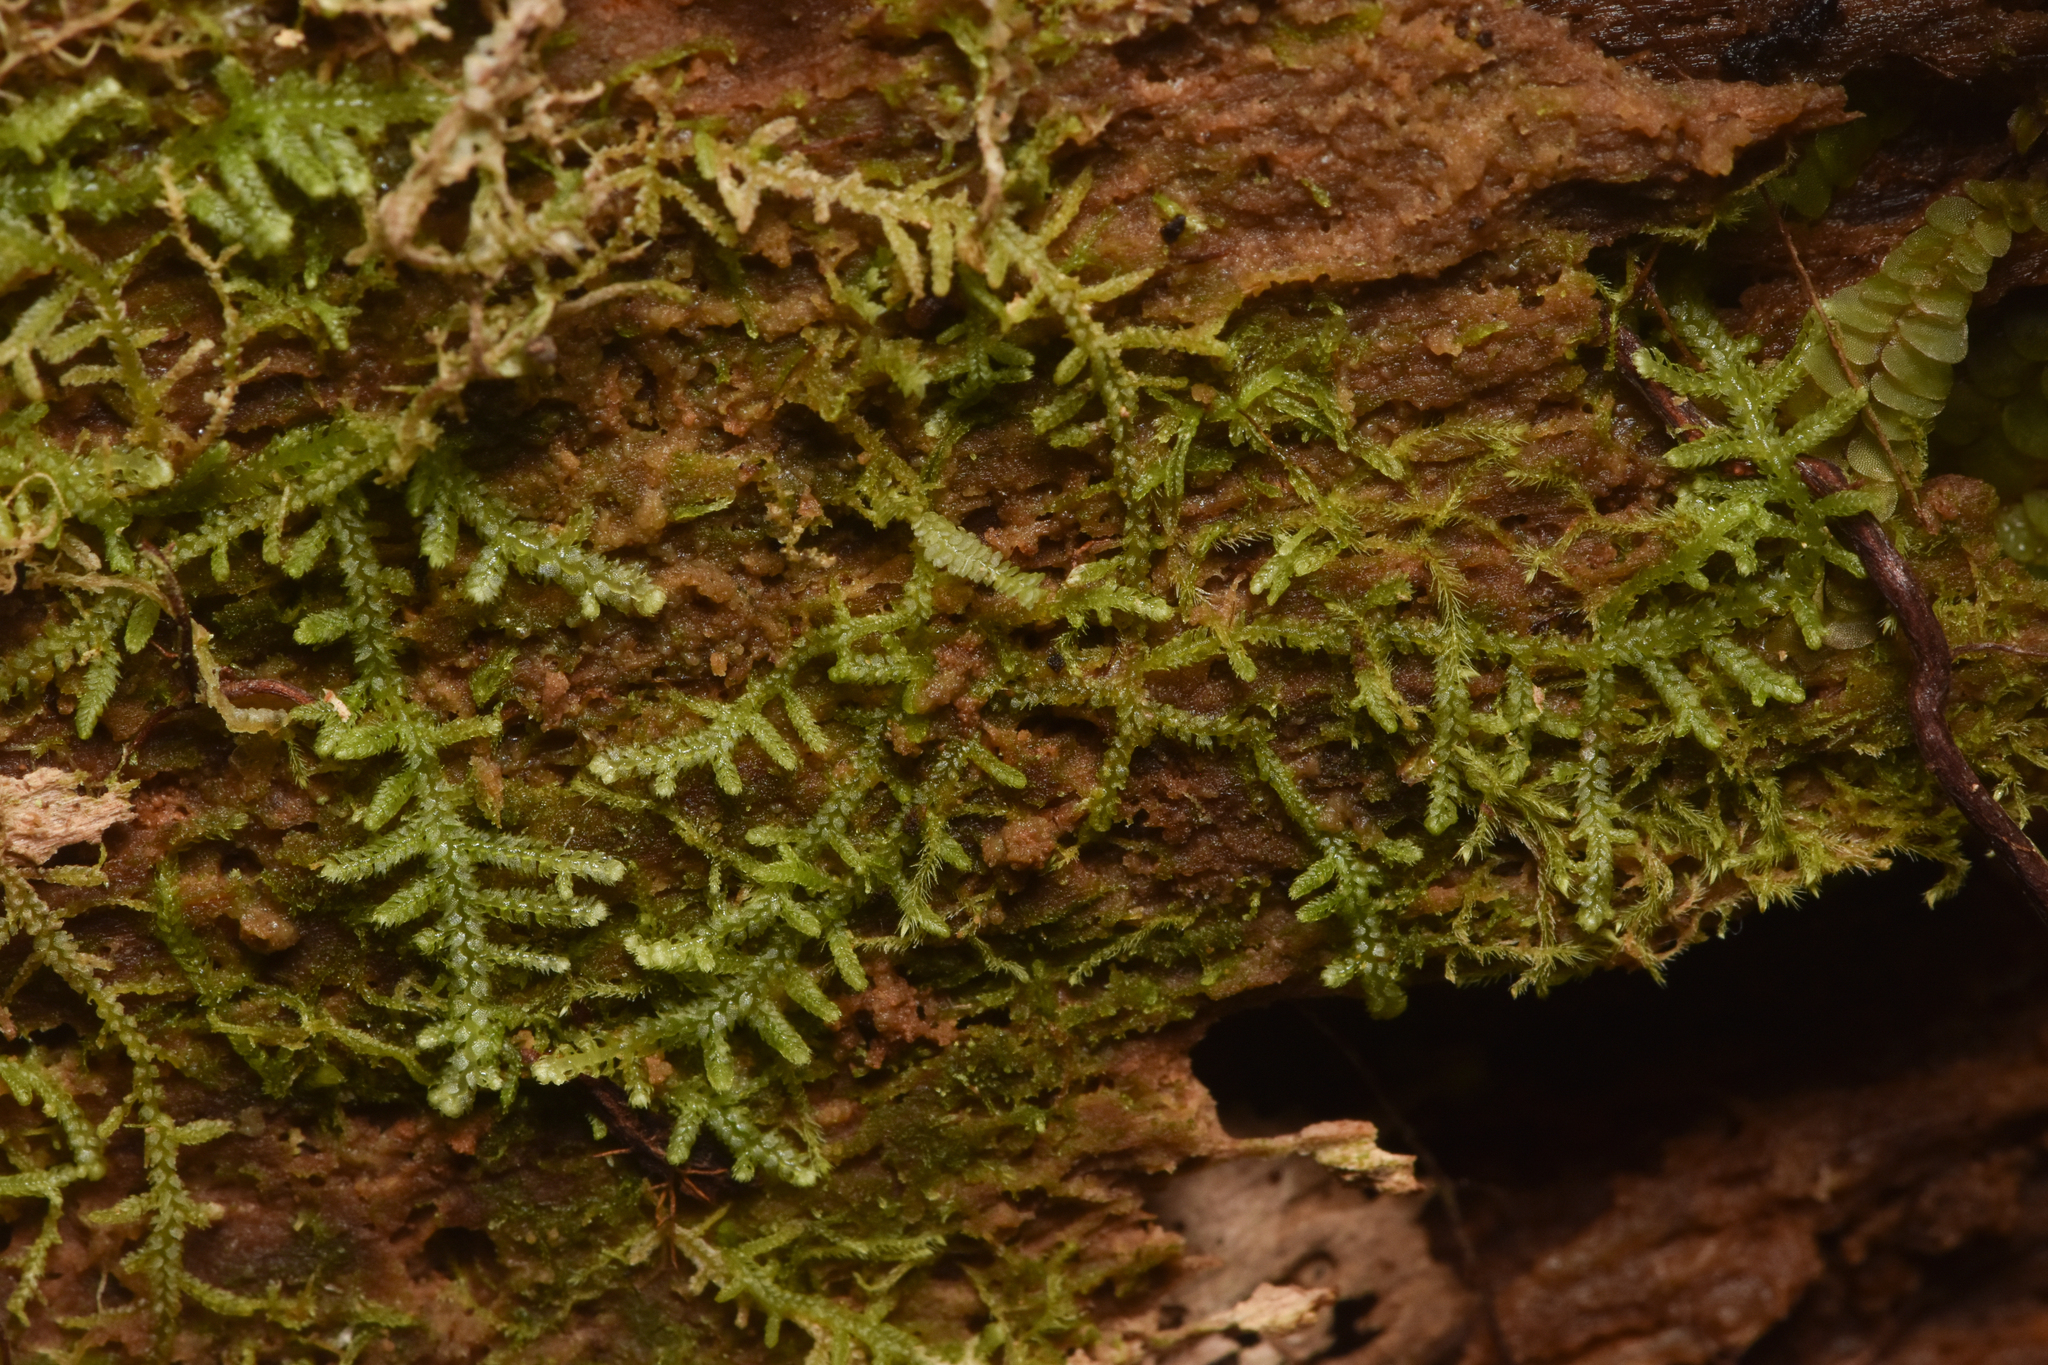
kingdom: Plantae
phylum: Marchantiophyta
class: Jungermanniopsida
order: Jungermanniales
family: Lepidoziaceae
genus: Lepidozia
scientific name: Lepidozia reptans
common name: Creeping fingerwort
